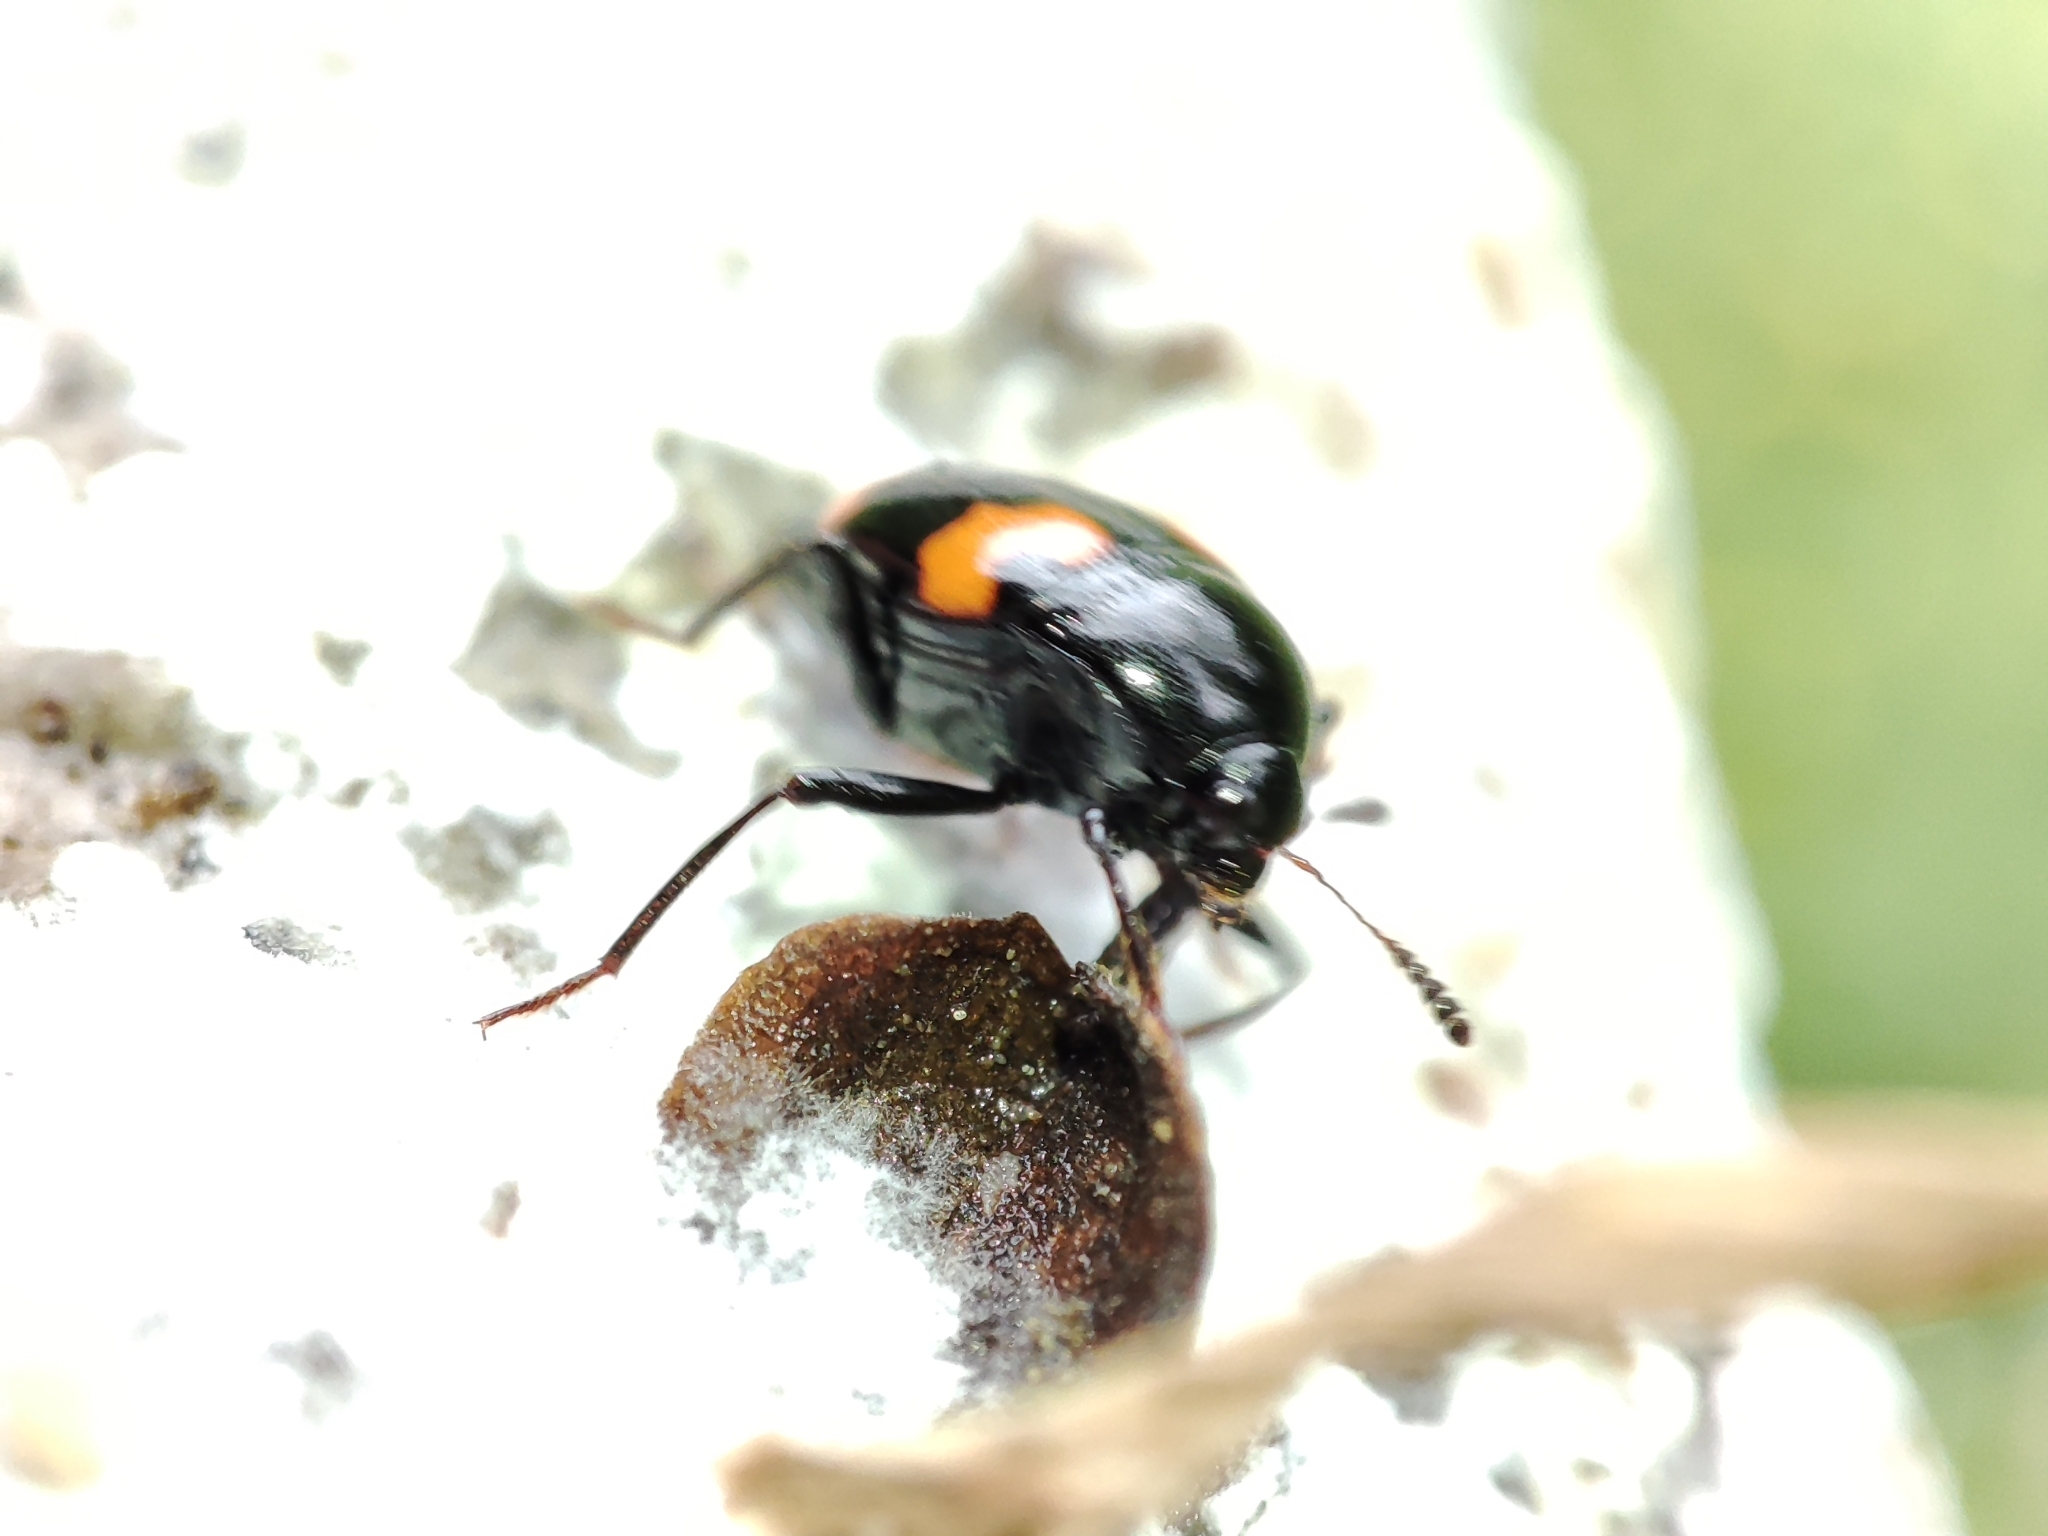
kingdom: Animalia
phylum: Arthropoda
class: Insecta
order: Coleoptera
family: Staphylinidae
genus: Scaphidium
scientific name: Scaphidium quadrimaculatum
